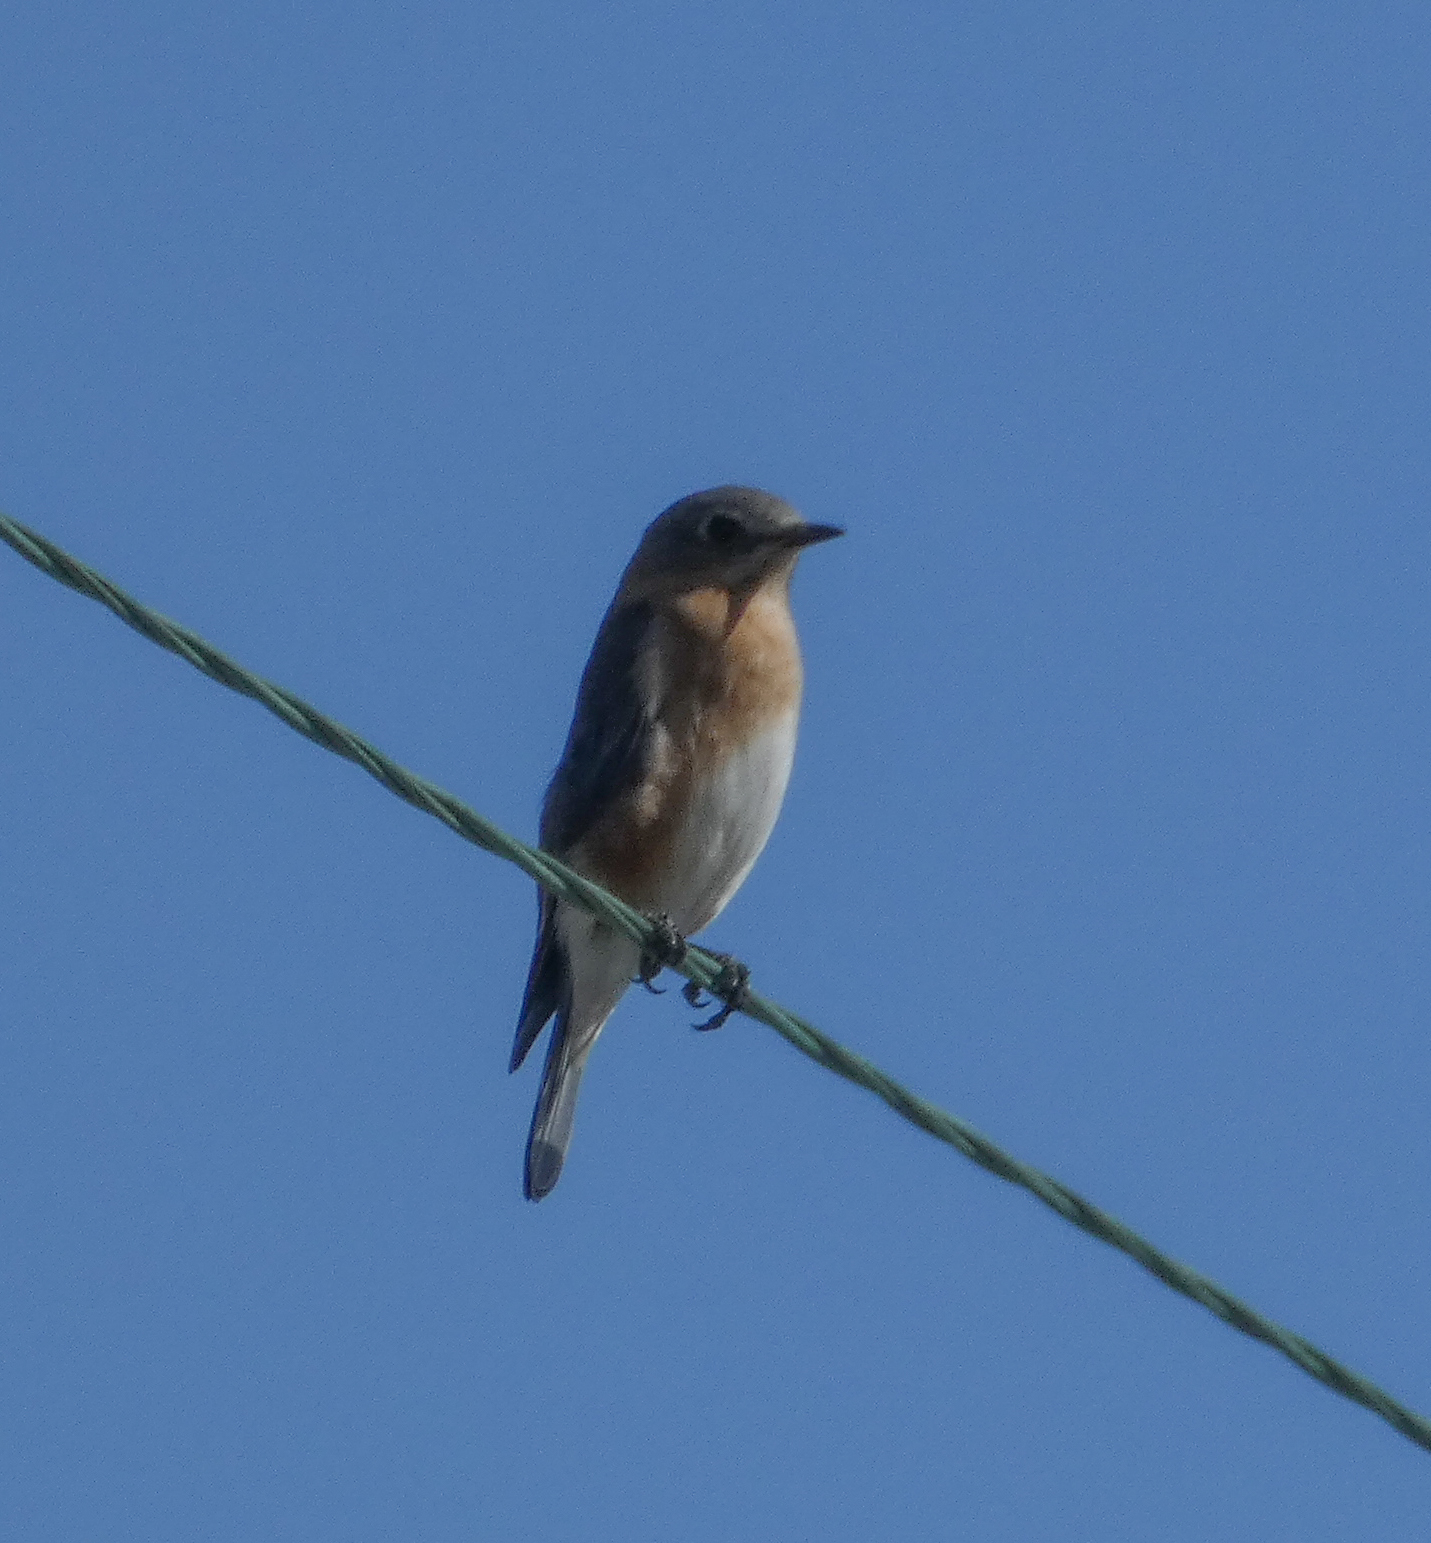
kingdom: Animalia
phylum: Chordata
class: Aves
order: Passeriformes
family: Turdidae
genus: Sialia
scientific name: Sialia sialis
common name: Eastern bluebird
